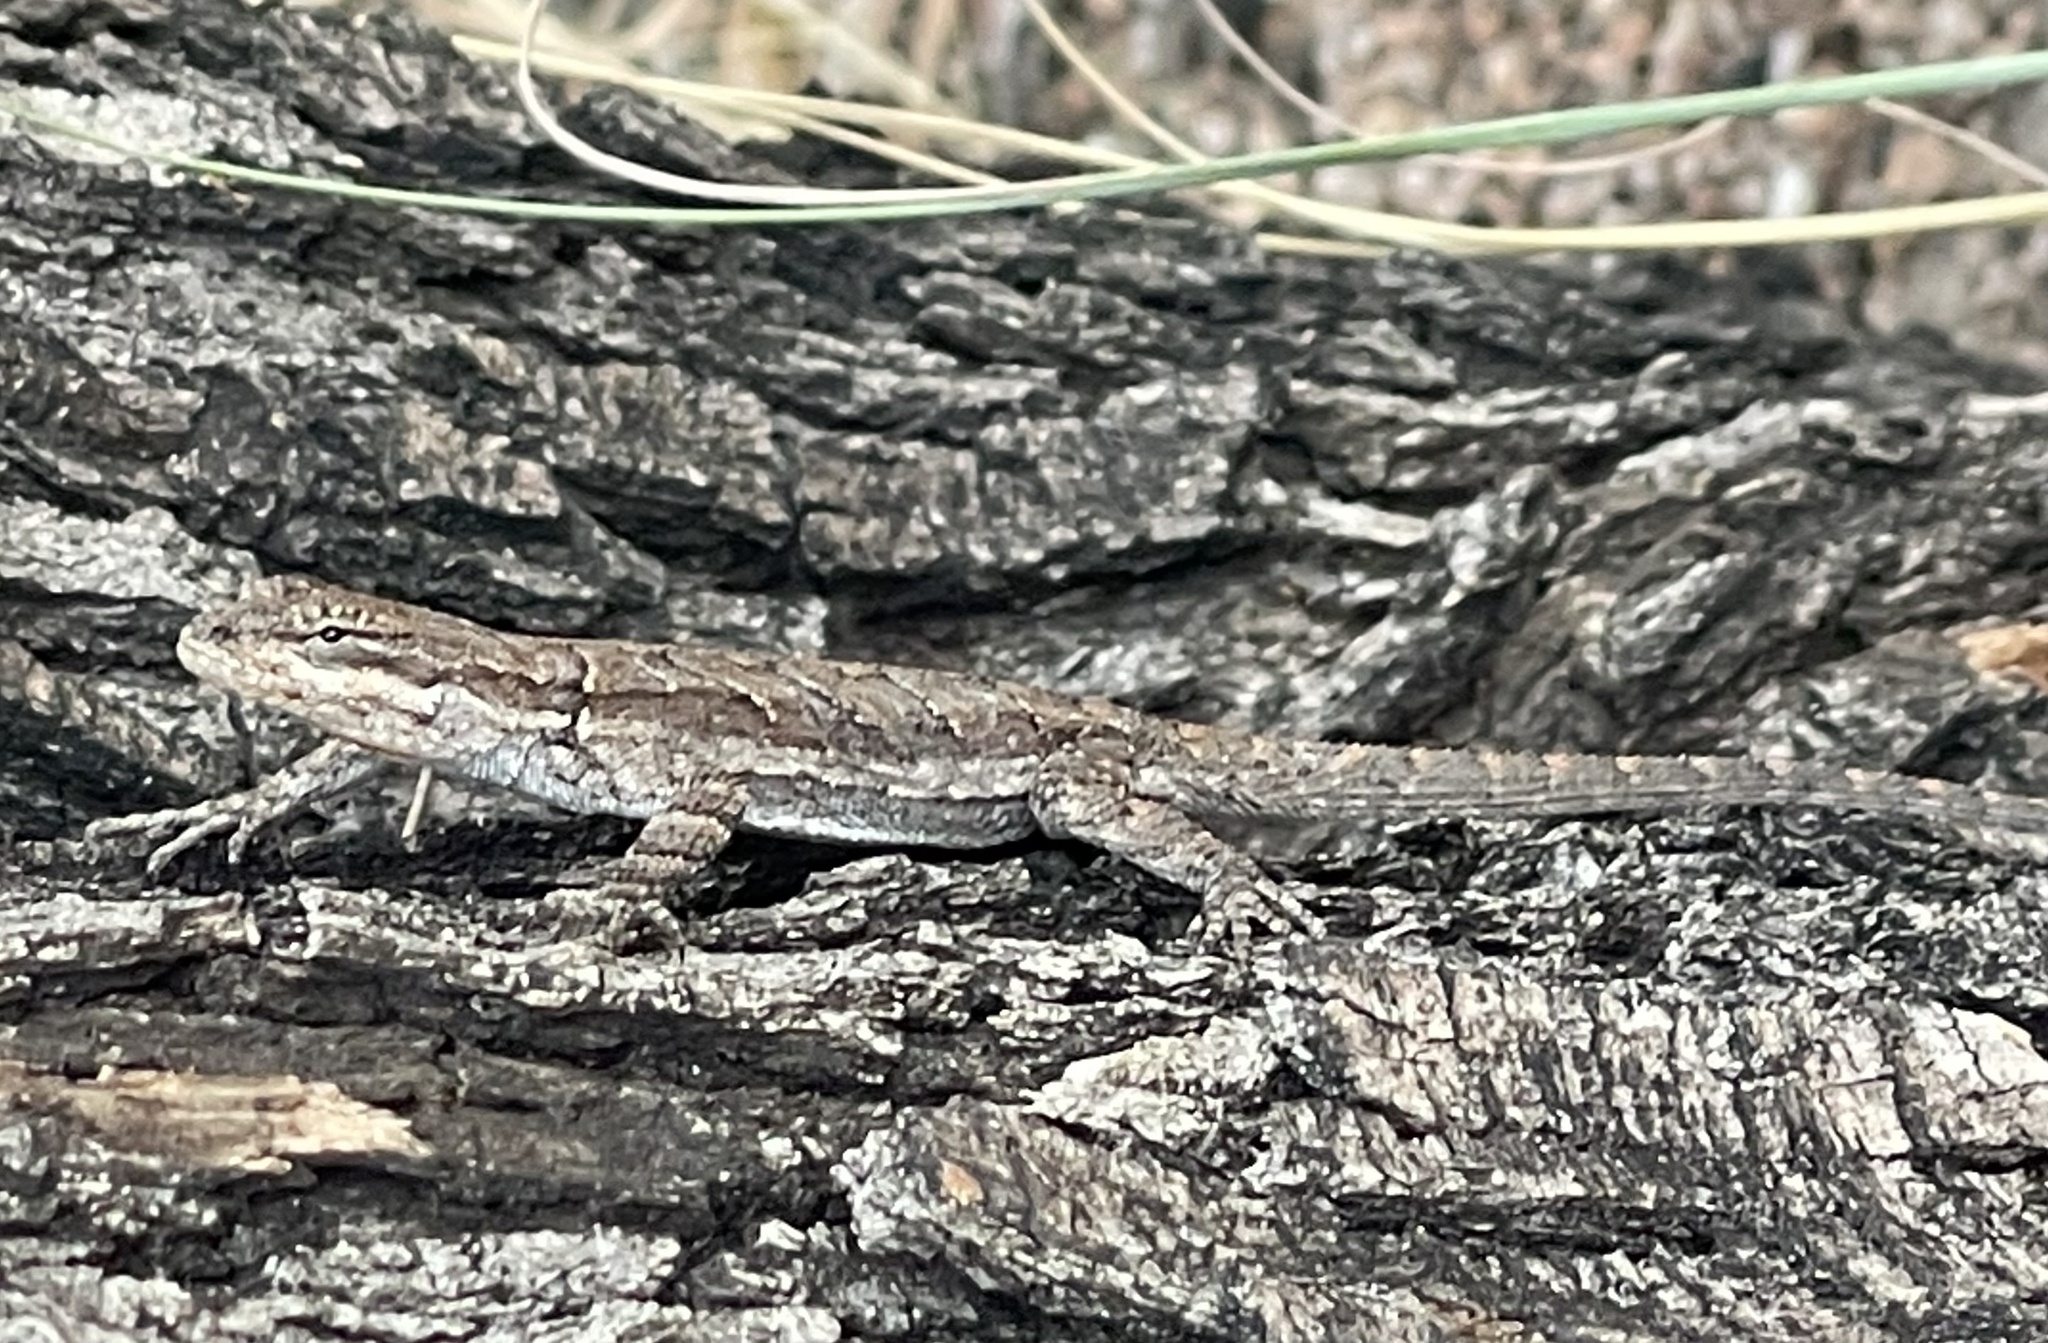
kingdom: Animalia
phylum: Chordata
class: Squamata
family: Phrynosomatidae
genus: Urosaurus
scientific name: Urosaurus ornatus
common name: Ornate tree lizard
